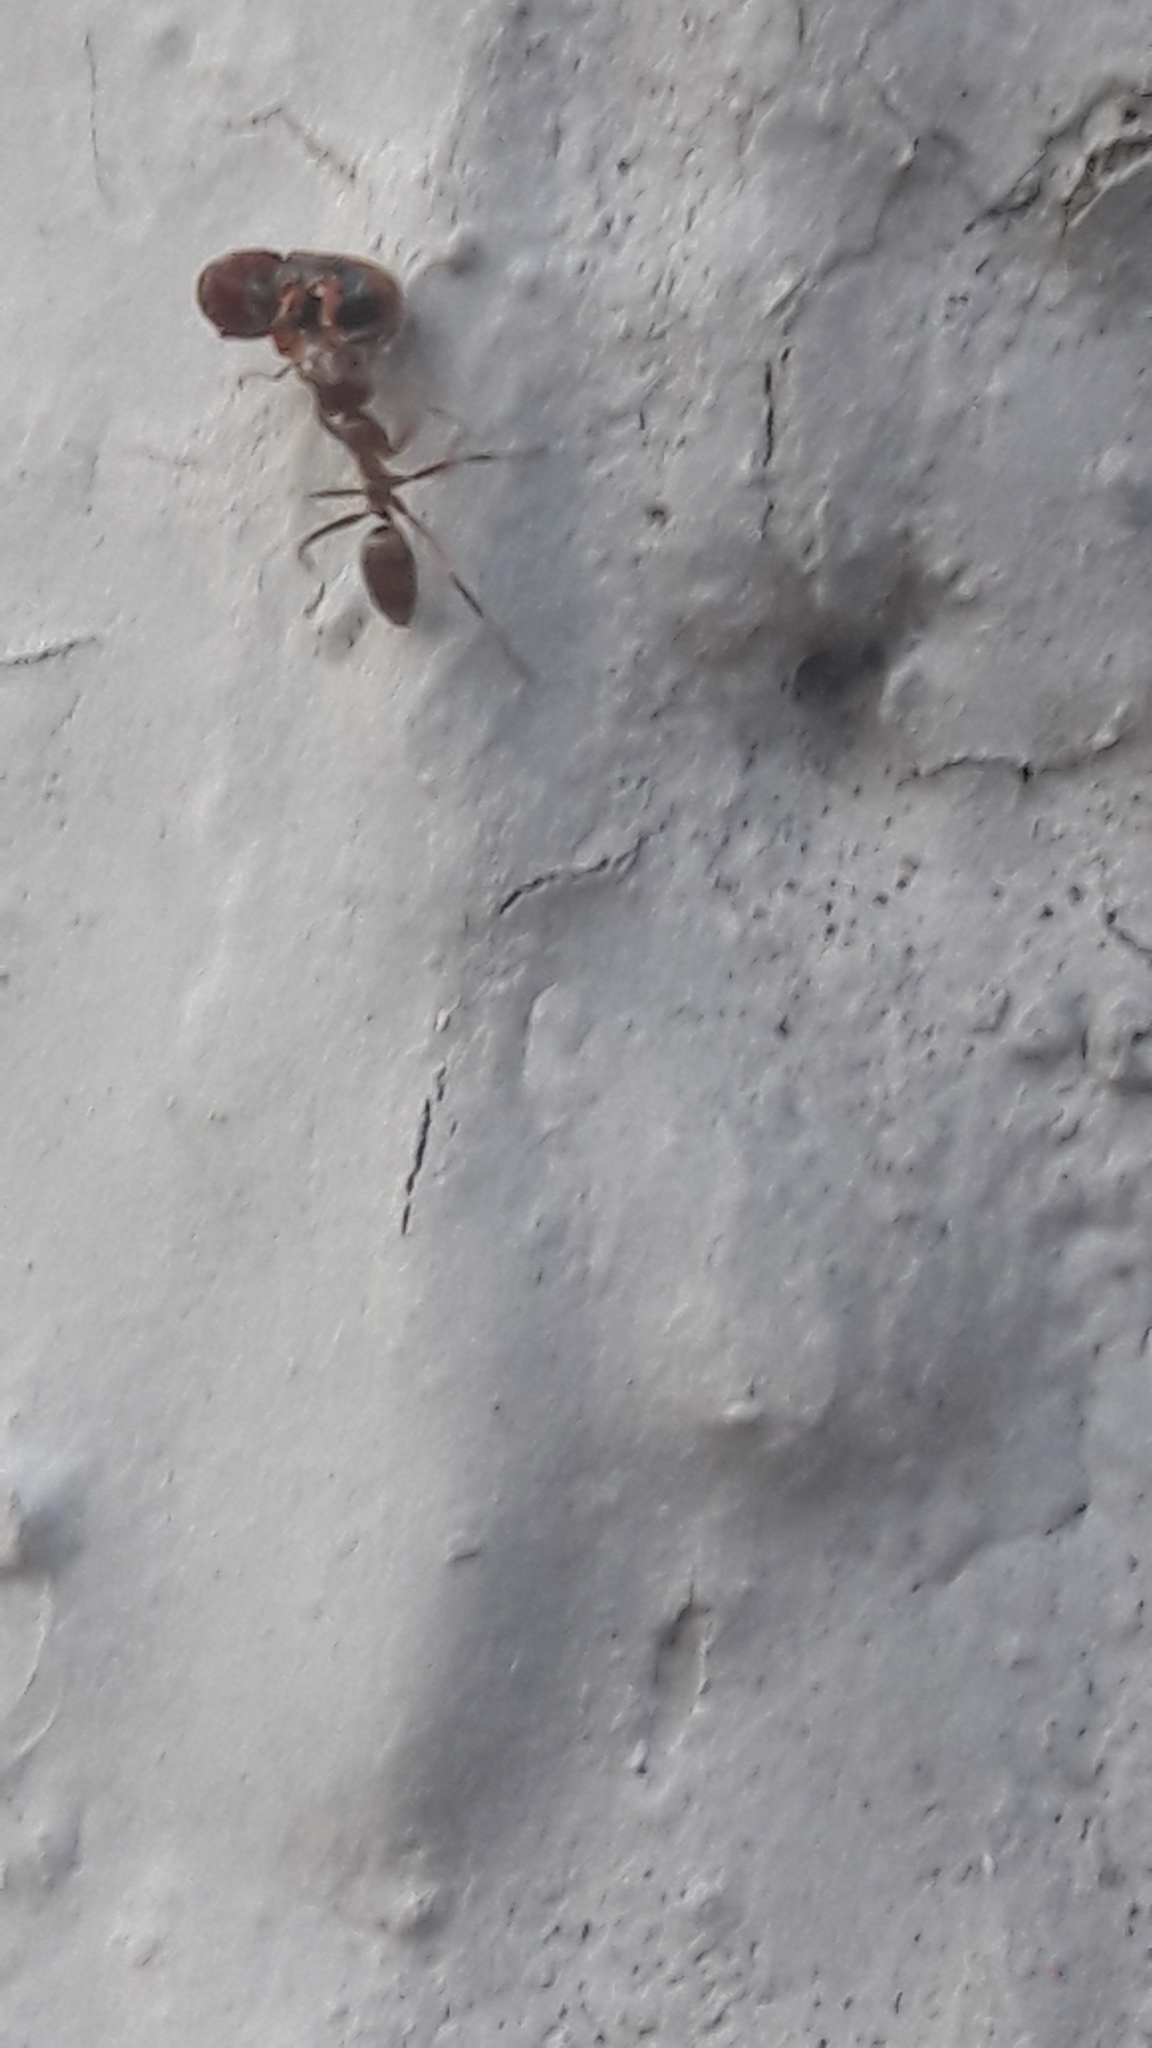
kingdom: Animalia
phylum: Arthropoda
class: Insecta
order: Hymenoptera
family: Formicidae
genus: Linepithema
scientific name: Linepithema humile
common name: Argentine ant
